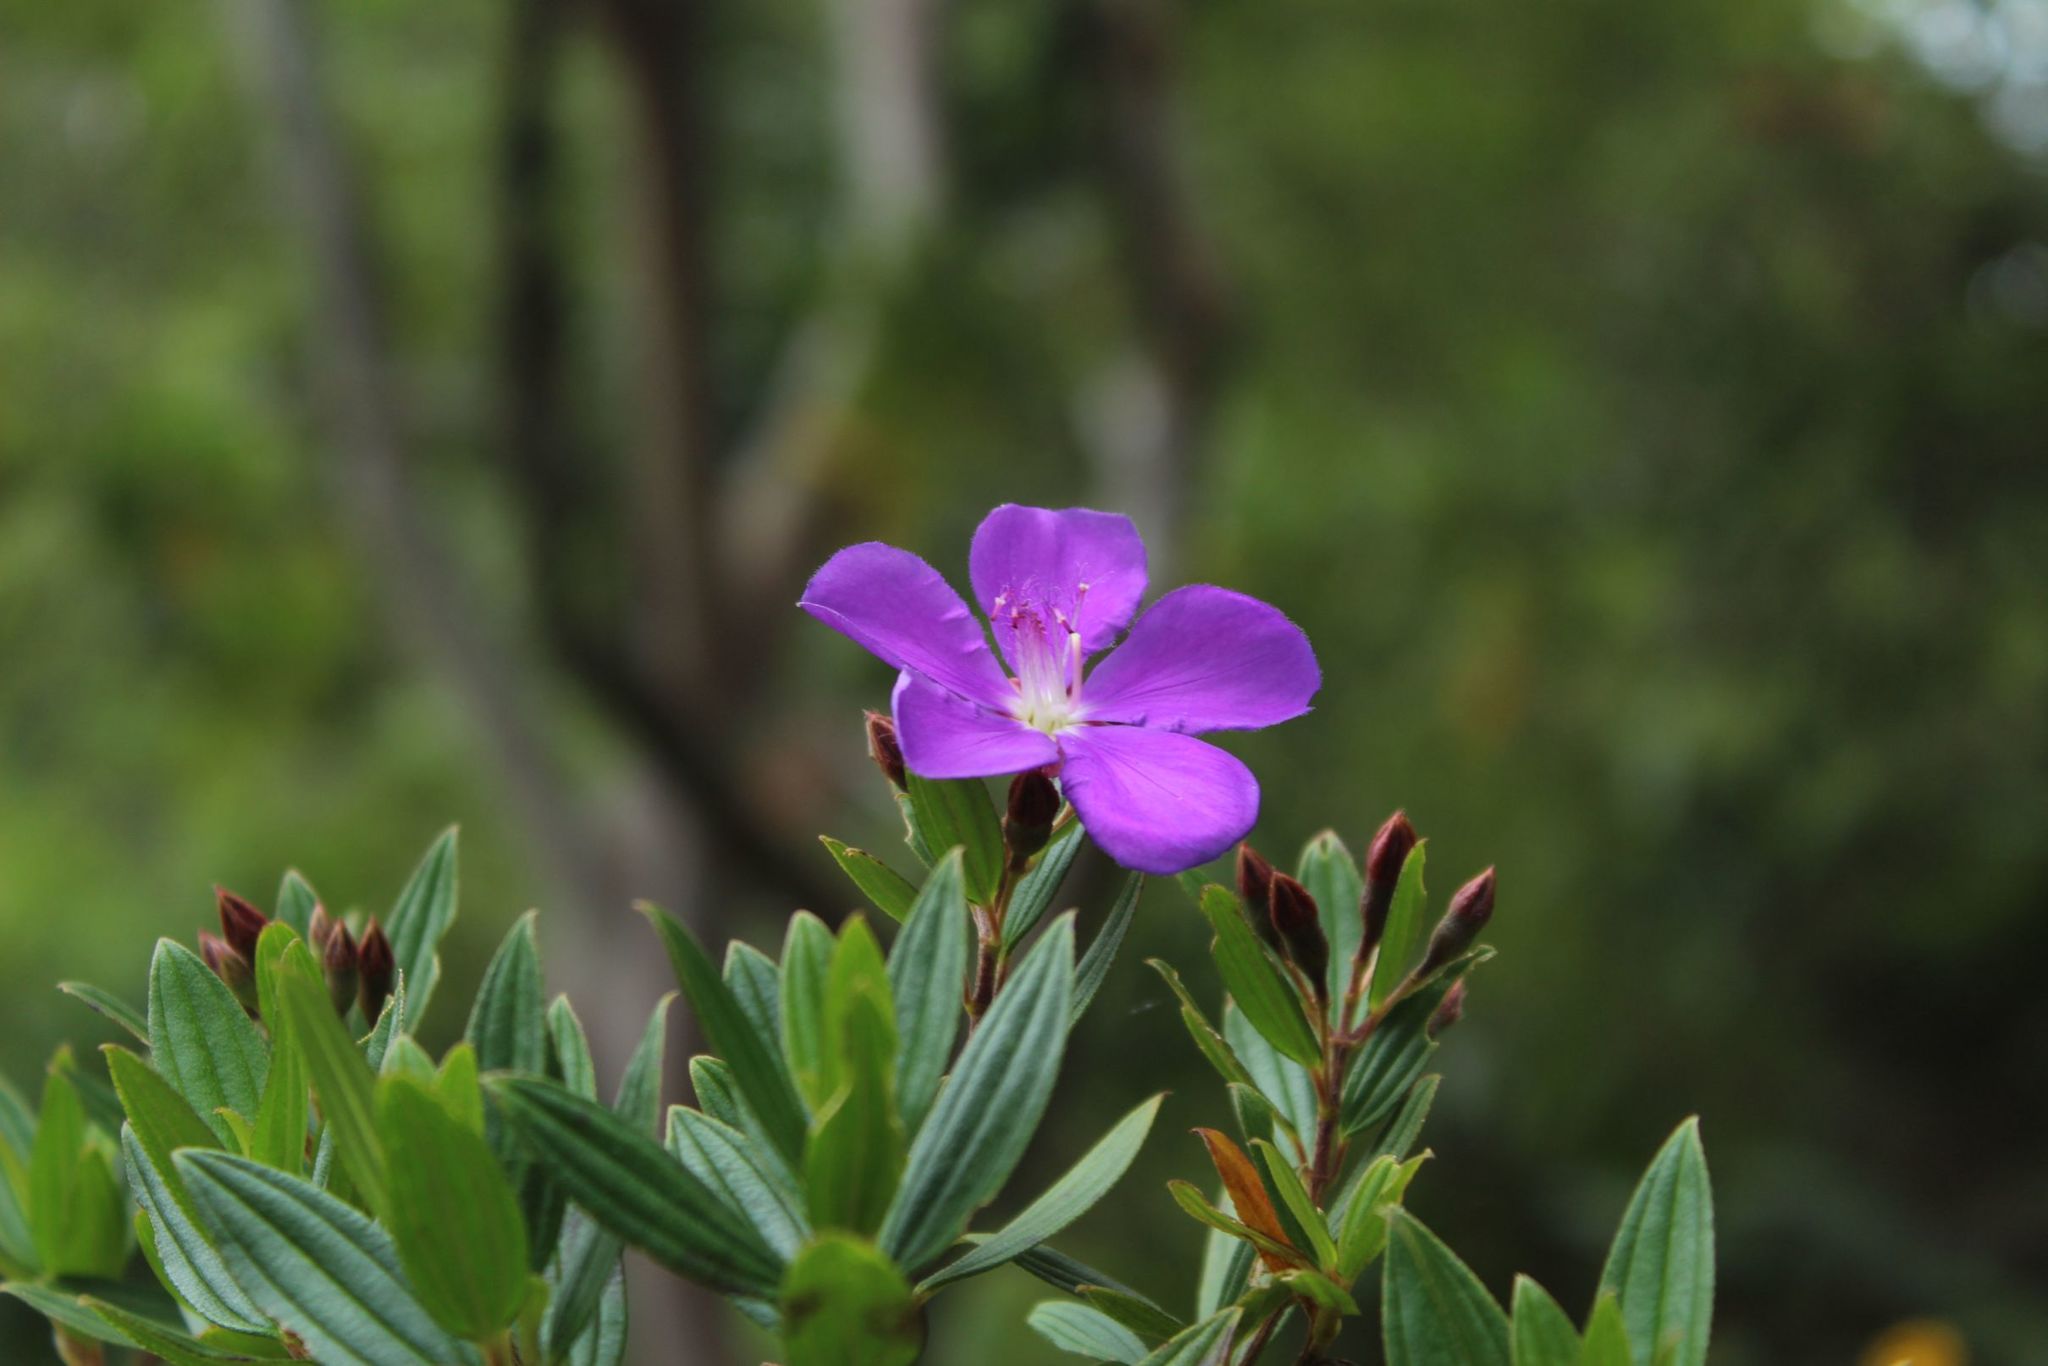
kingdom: Plantae
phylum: Tracheophyta
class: Magnoliopsida
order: Myrtales
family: Melastomataceae
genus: Pleroma
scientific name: Pleroma martiale
